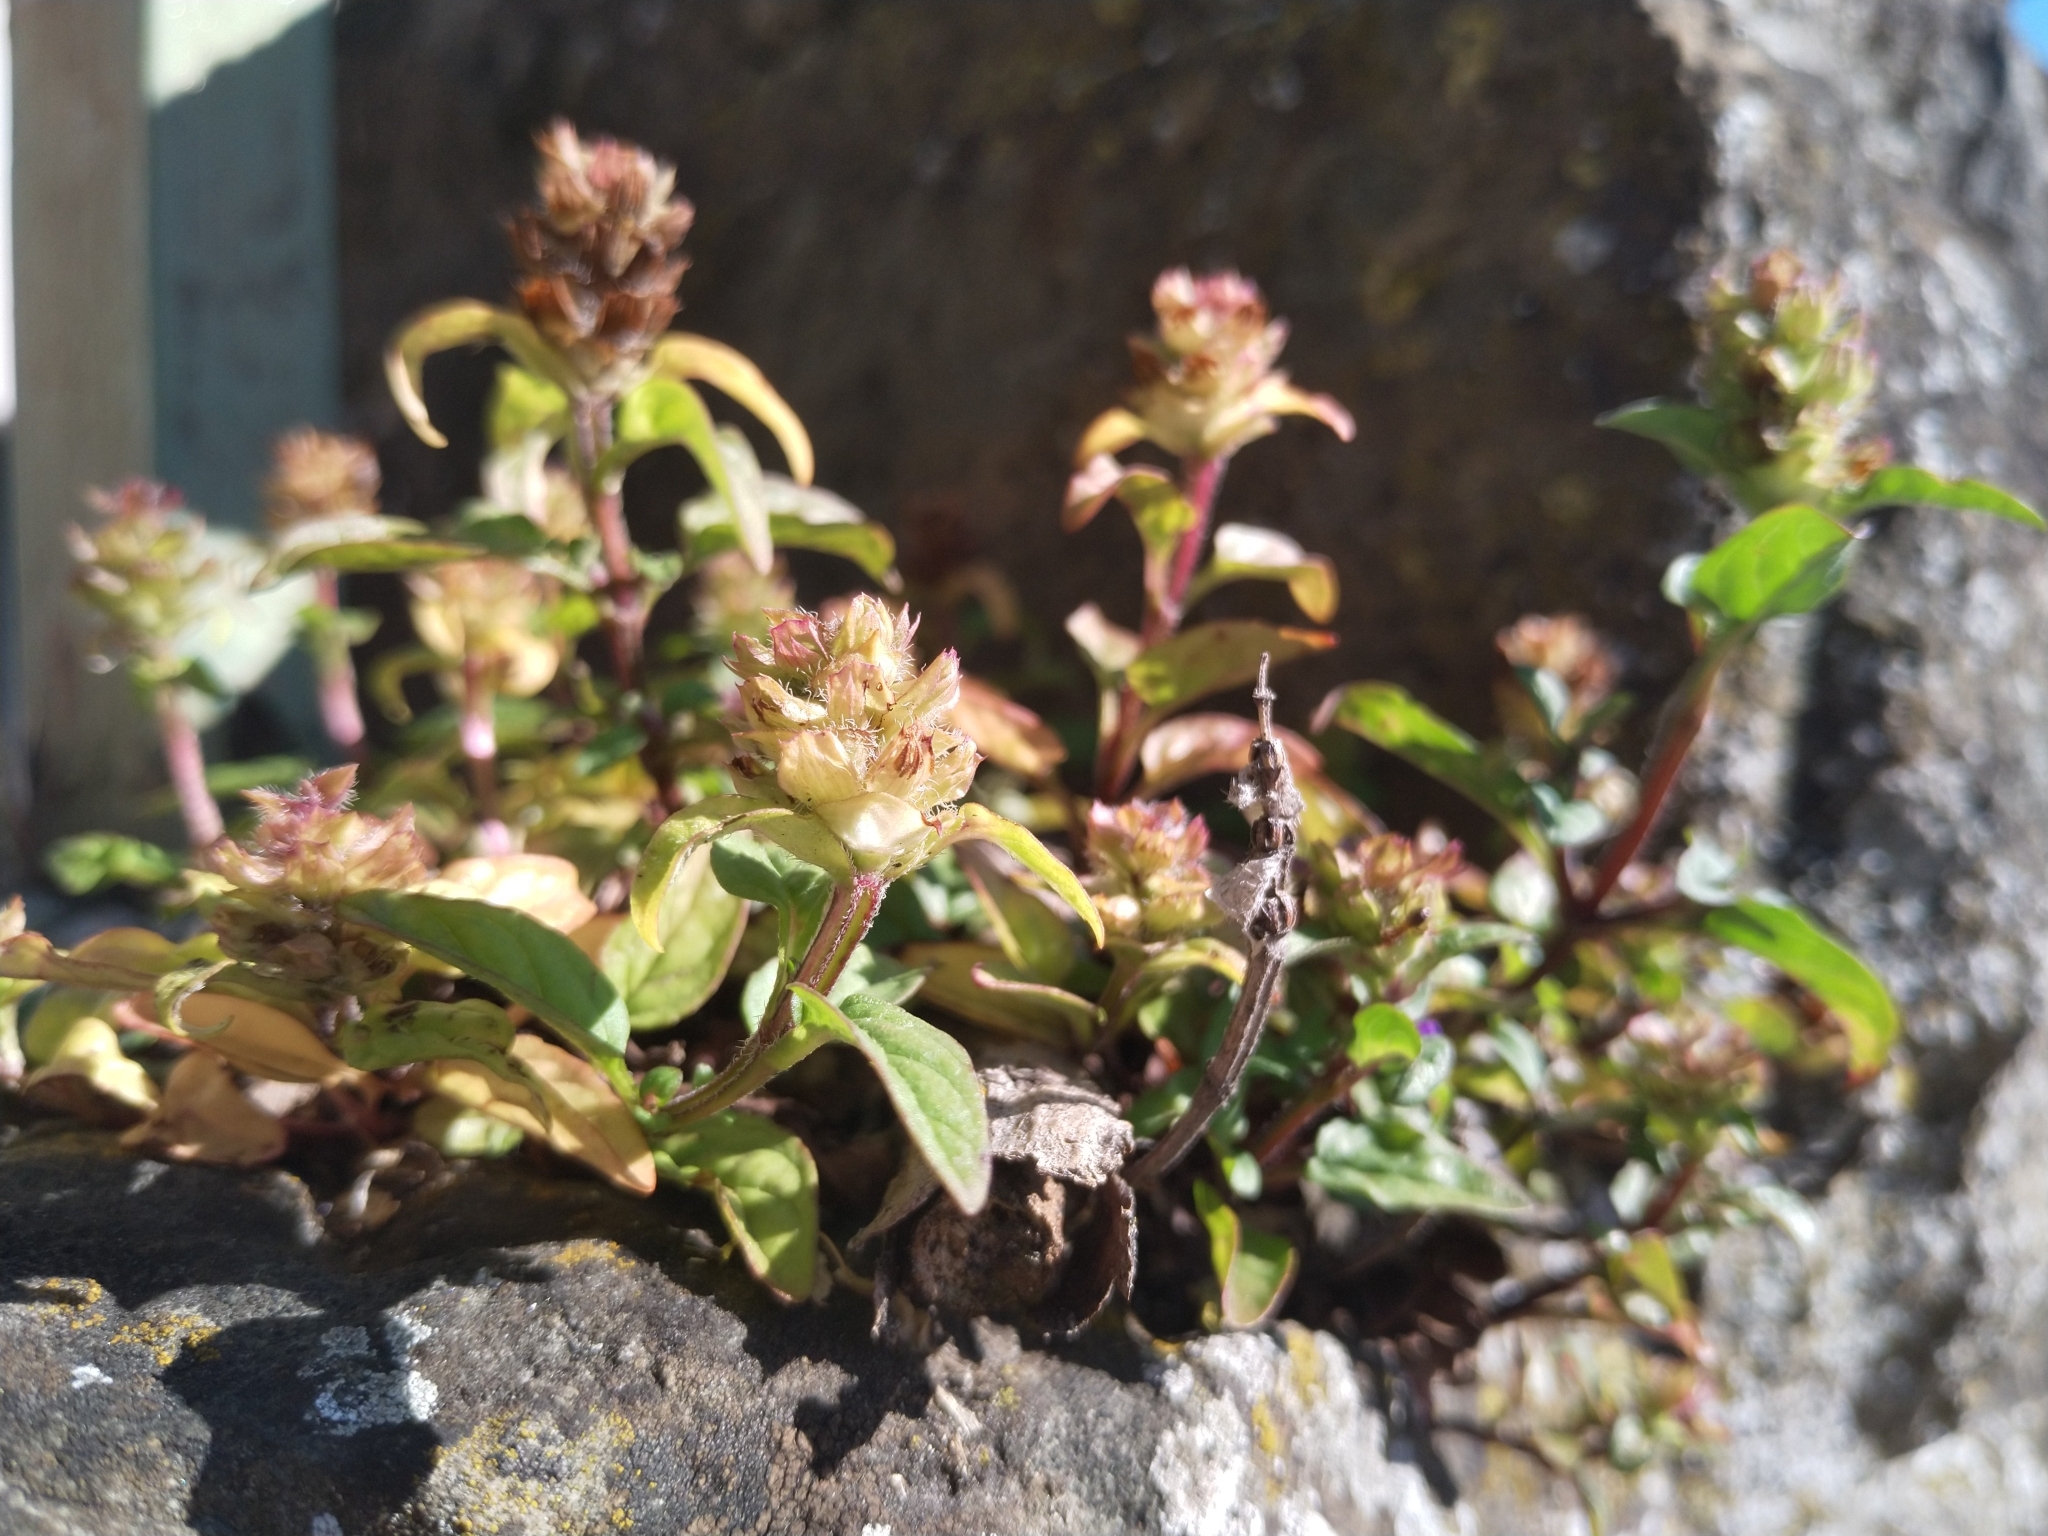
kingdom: Plantae
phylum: Tracheophyta
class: Magnoliopsida
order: Lamiales
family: Lamiaceae
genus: Prunella
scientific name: Prunella vulgaris
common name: Heal-all
